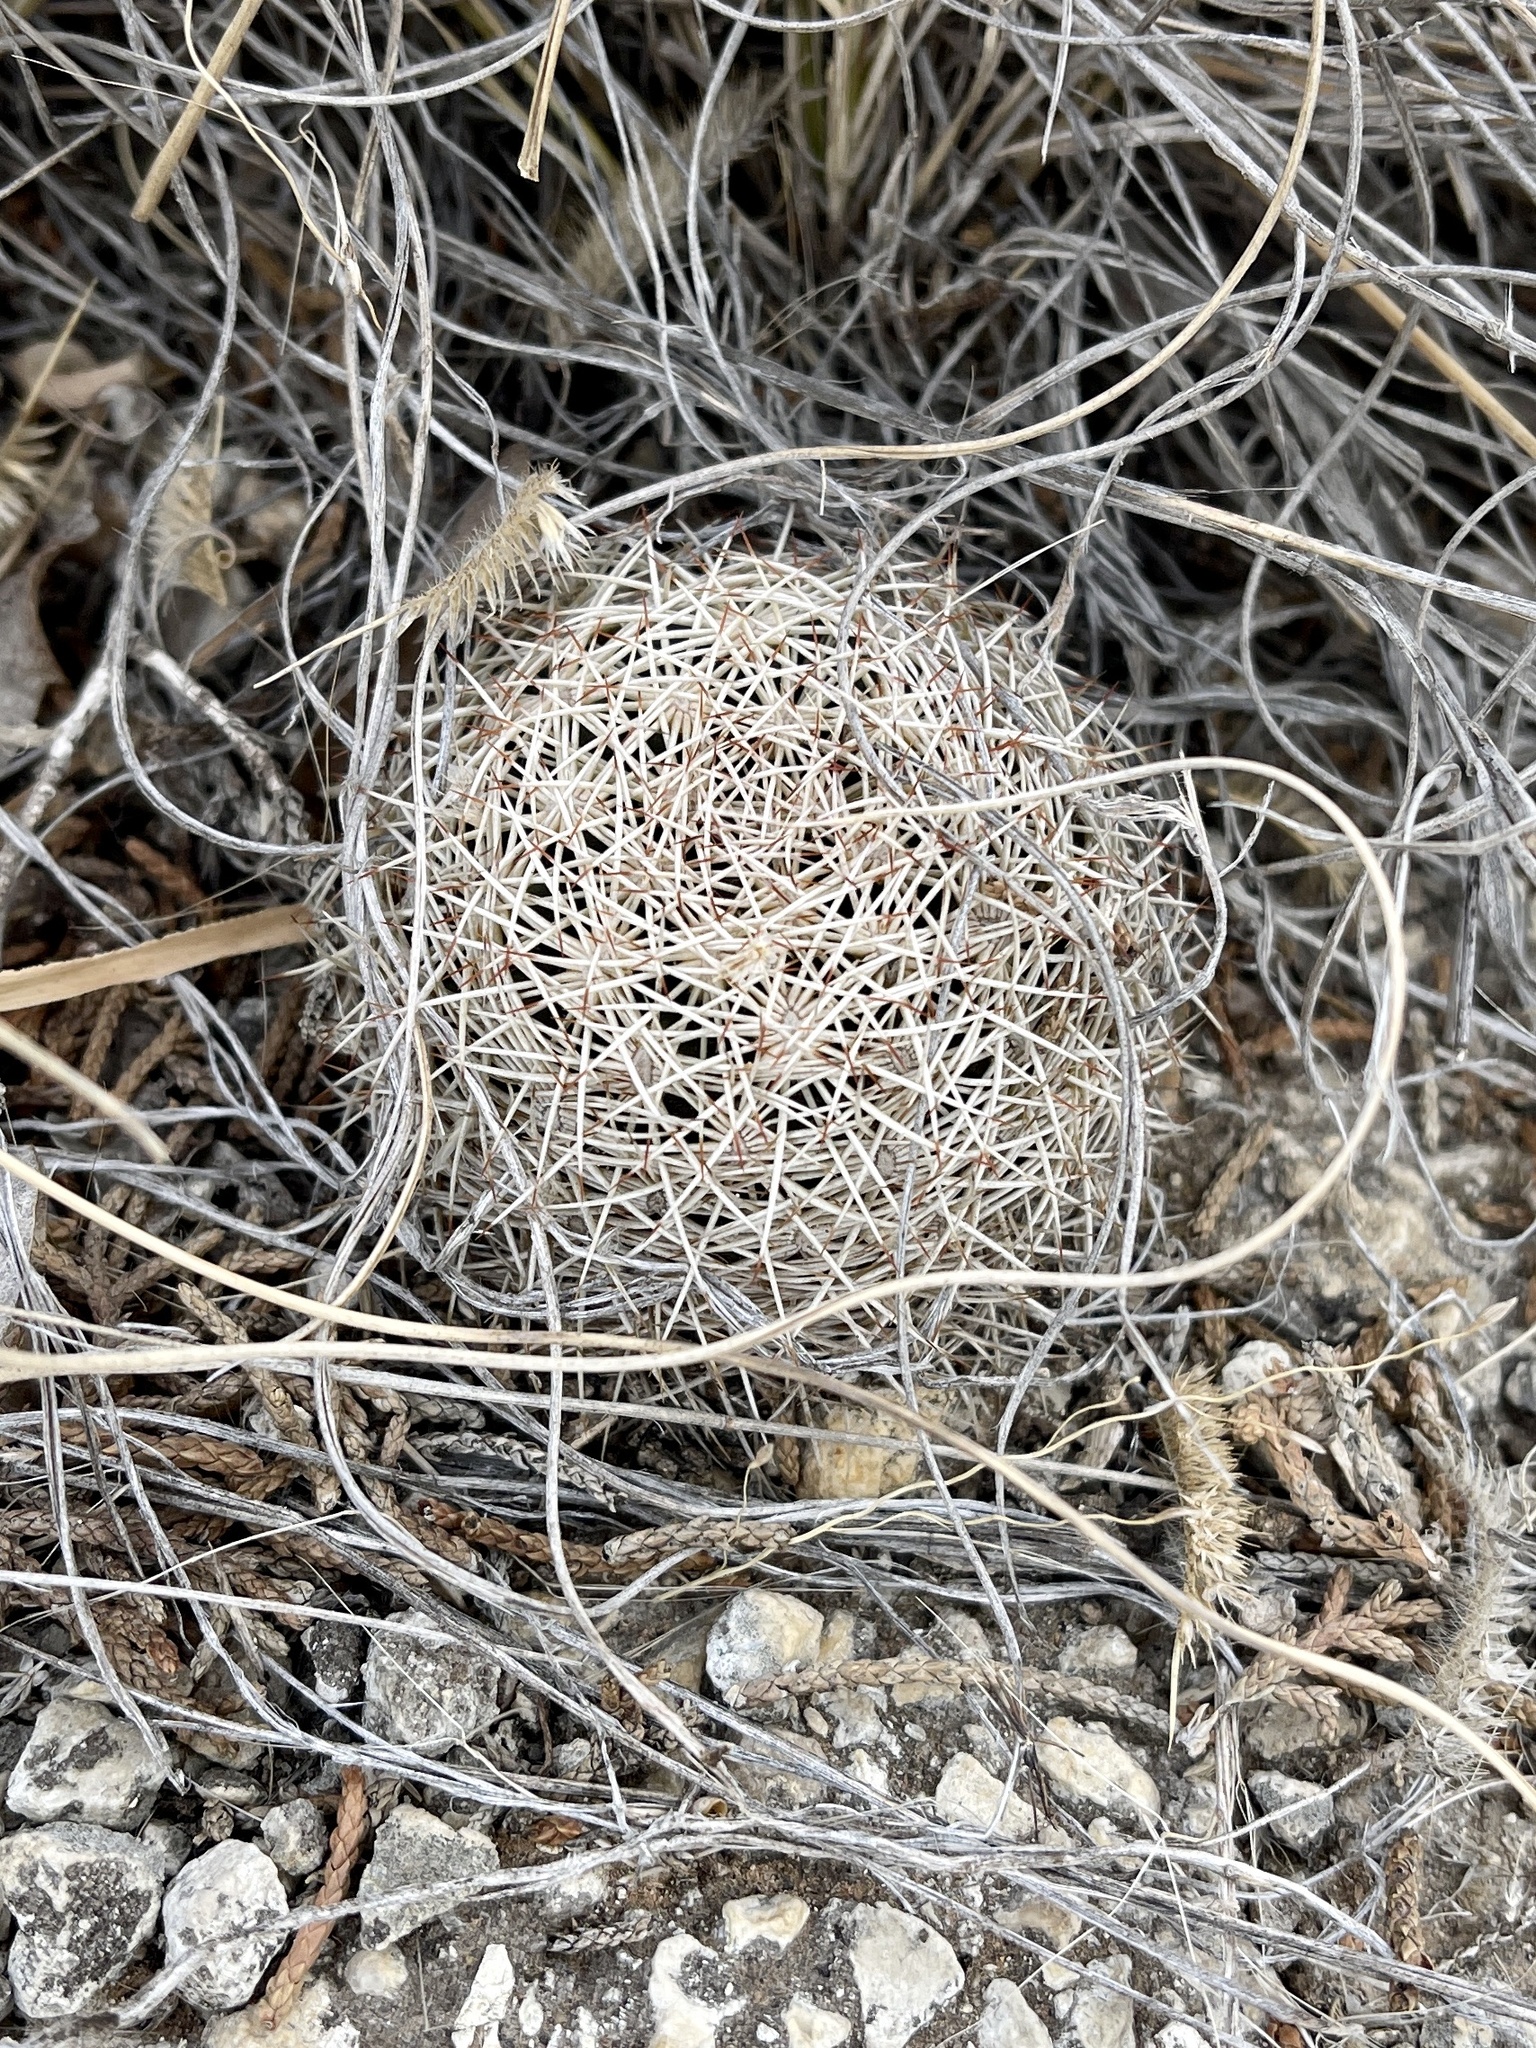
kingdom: Plantae
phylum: Tracheophyta
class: Magnoliopsida
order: Caryophyllales
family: Cactaceae
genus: Coryphantha
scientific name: Coryphantha echinus
